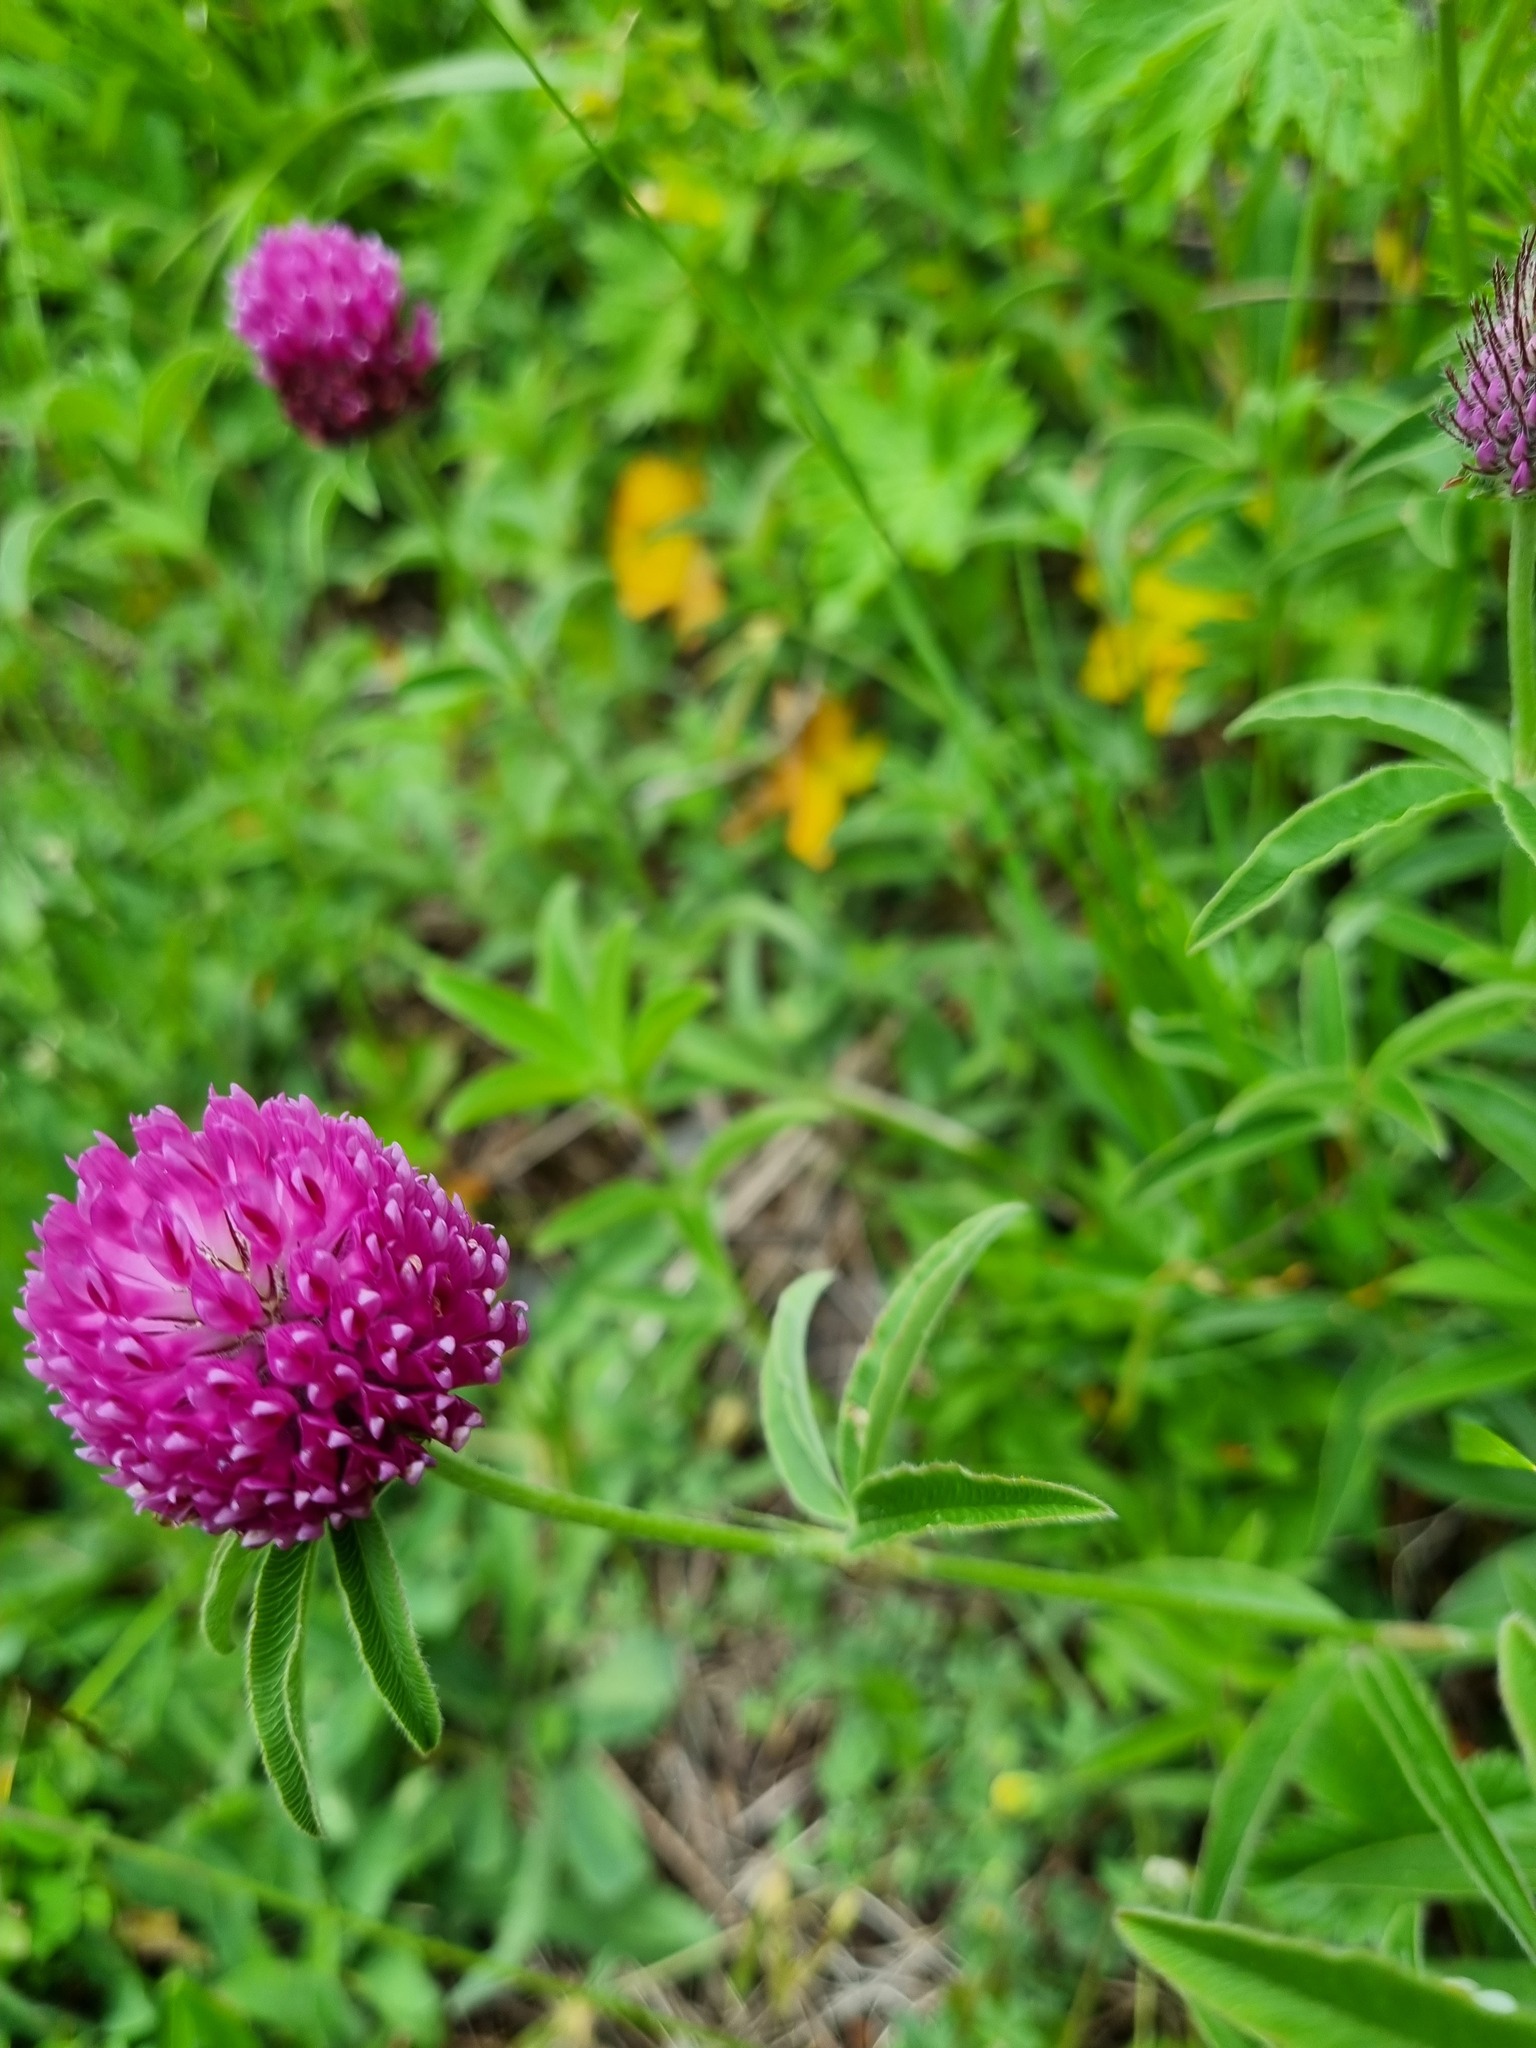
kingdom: Plantae
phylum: Tracheophyta
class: Magnoliopsida
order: Fabales
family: Fabaceae
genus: Trifolium
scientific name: Trifolium alpestre
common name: Owl-head clover
